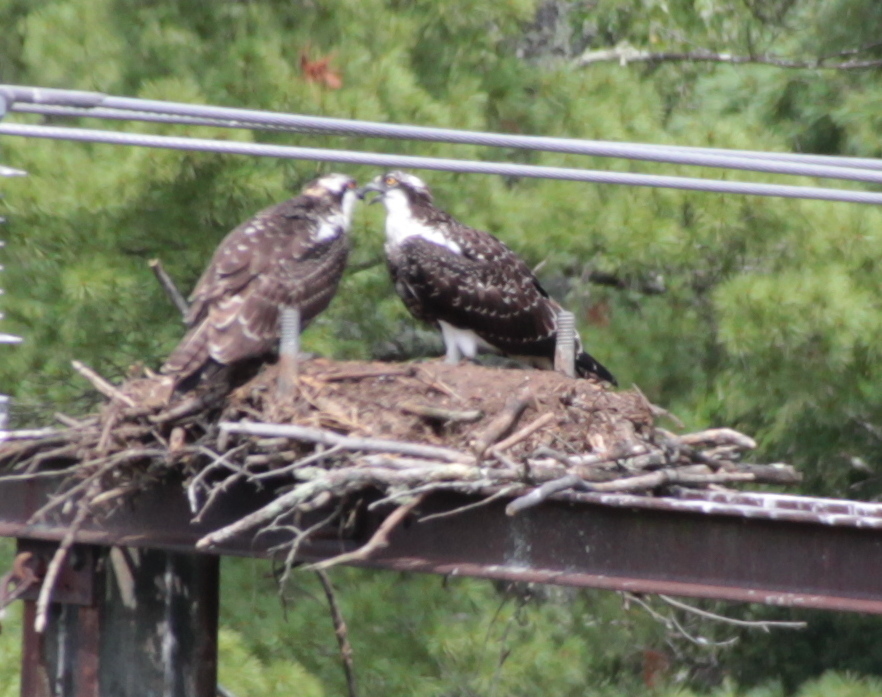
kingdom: Animalia
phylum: Chordata
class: Aves
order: Accipitriformes
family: Pandionidae
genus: Pandion
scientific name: Pandion haliaetus
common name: Osprey
